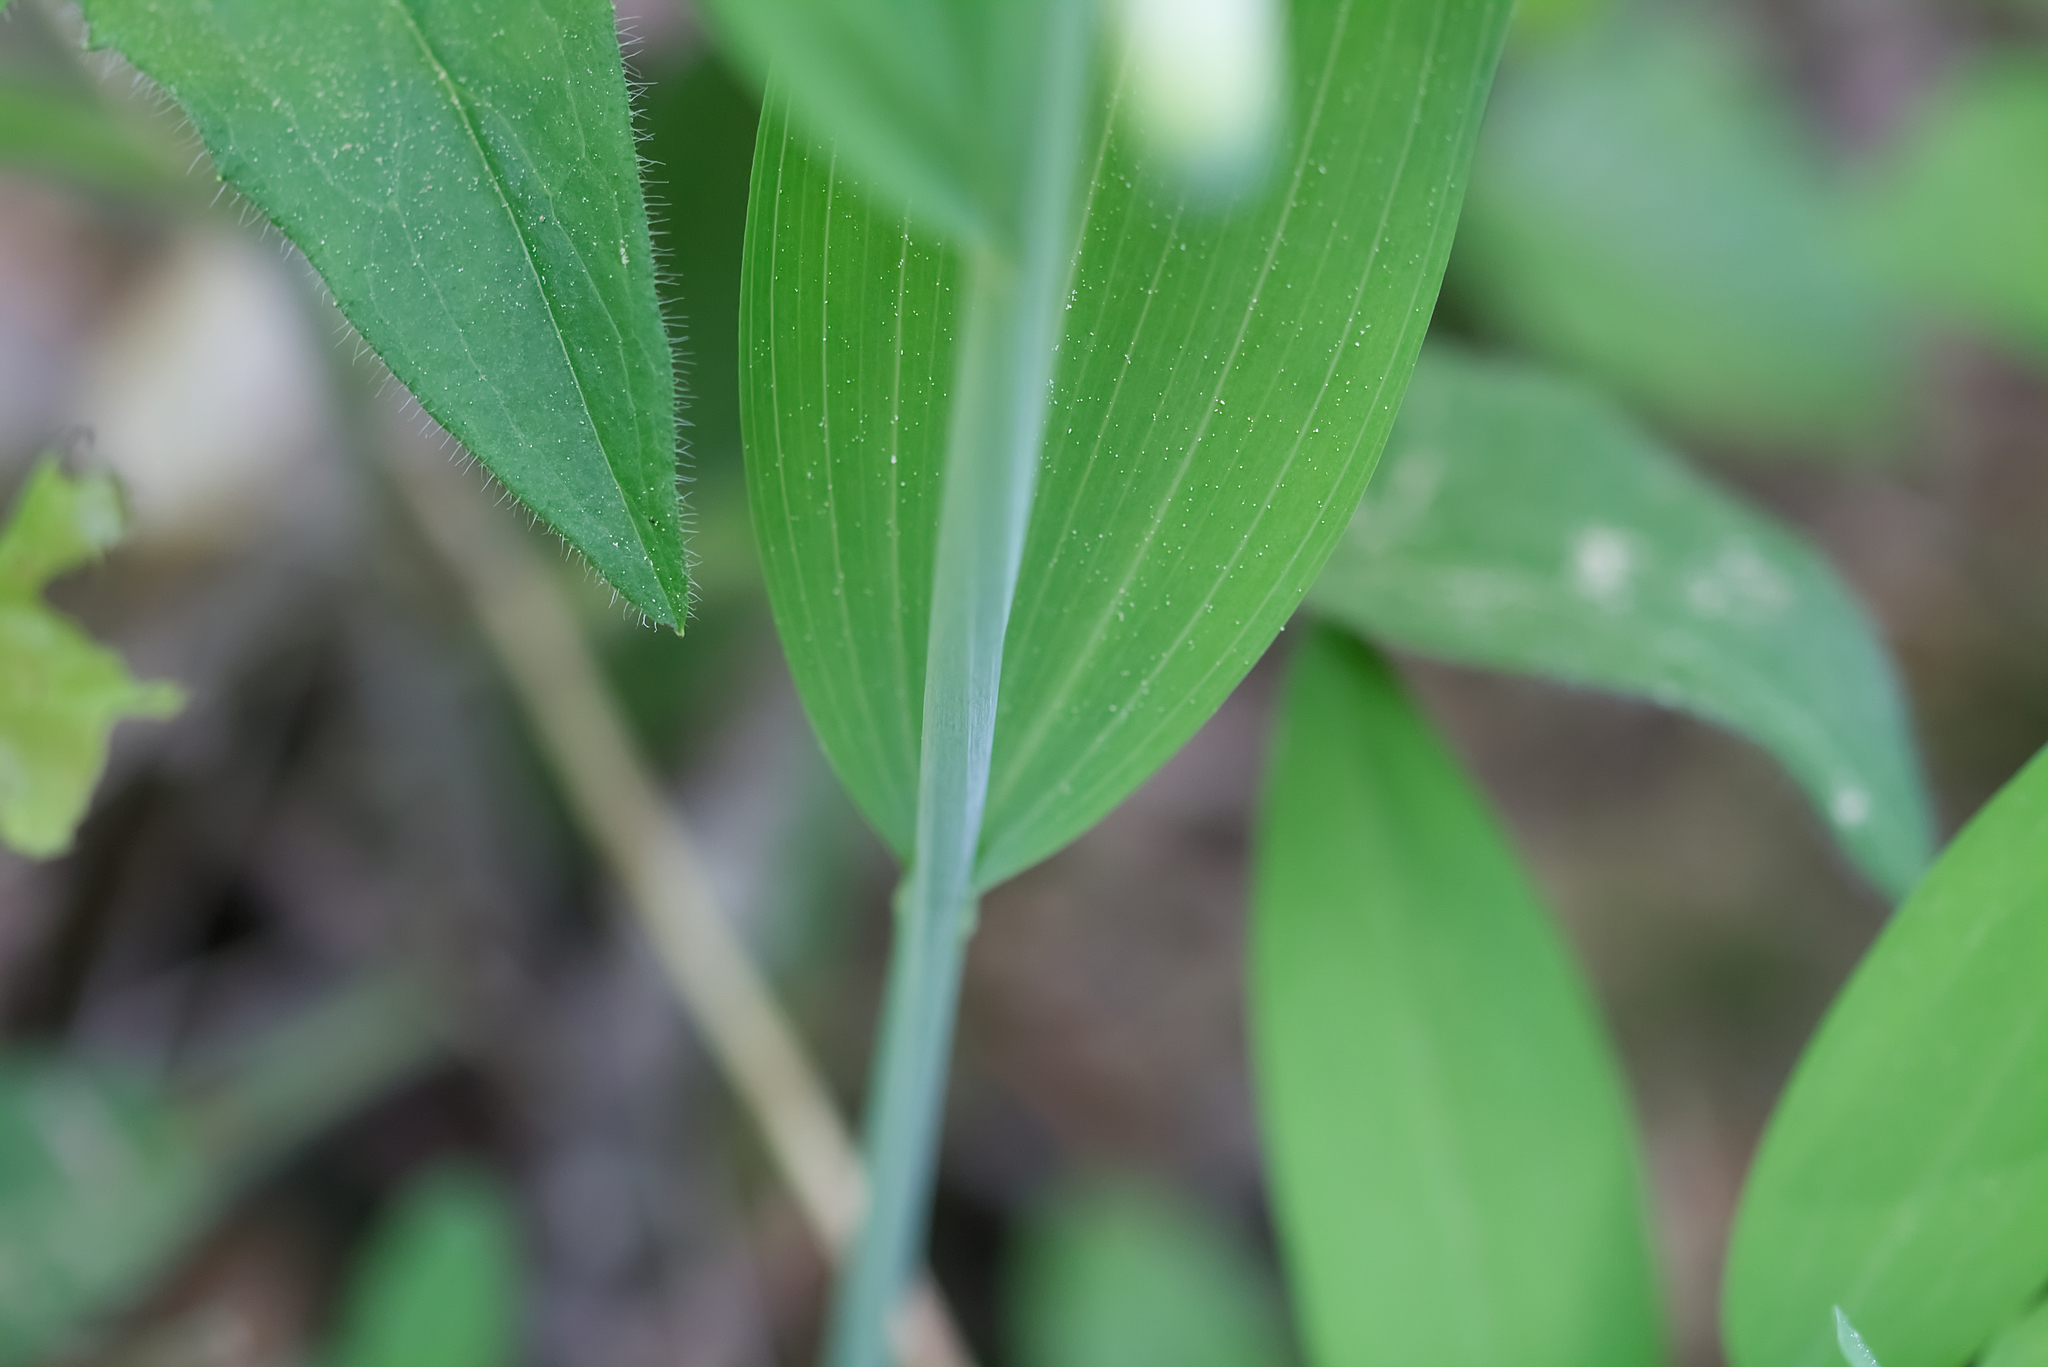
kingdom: Plantae
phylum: Tracheophyta
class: Liliopsida
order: Asparagales
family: Asparagaceae
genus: Polygonatum
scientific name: Polygonatum odoratum
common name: Angular solomon's-seal
